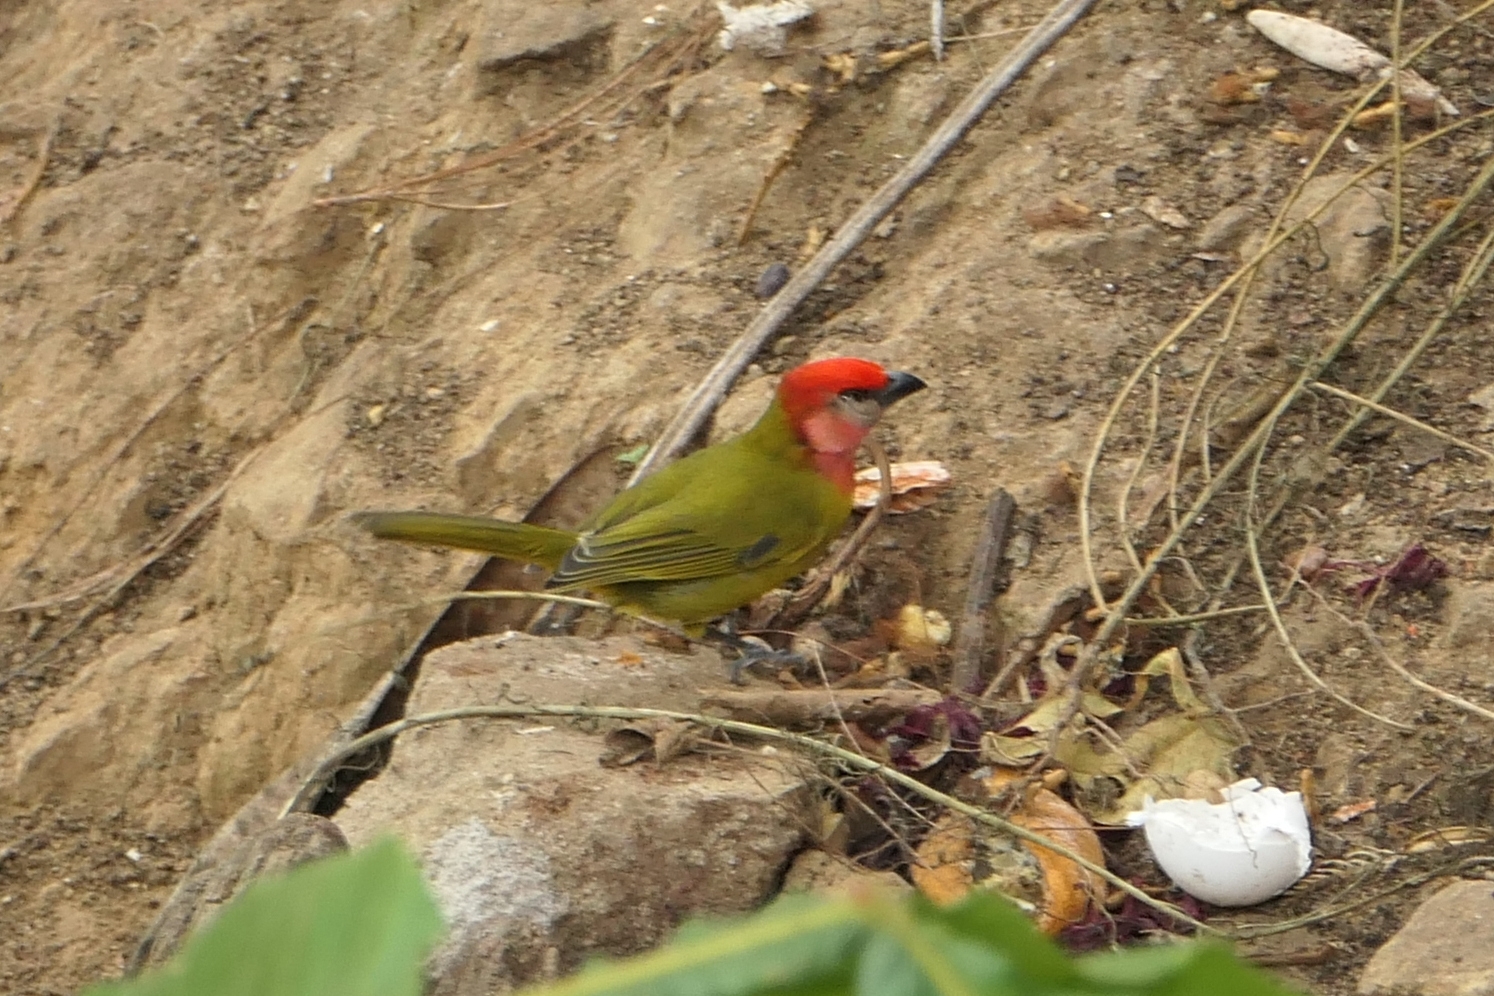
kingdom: Animalia
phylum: Chordata
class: Aves
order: Passeriformes
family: Cardinalidae
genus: Piranga
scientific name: Piranga erythrocephala
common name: Red-headed tanager
